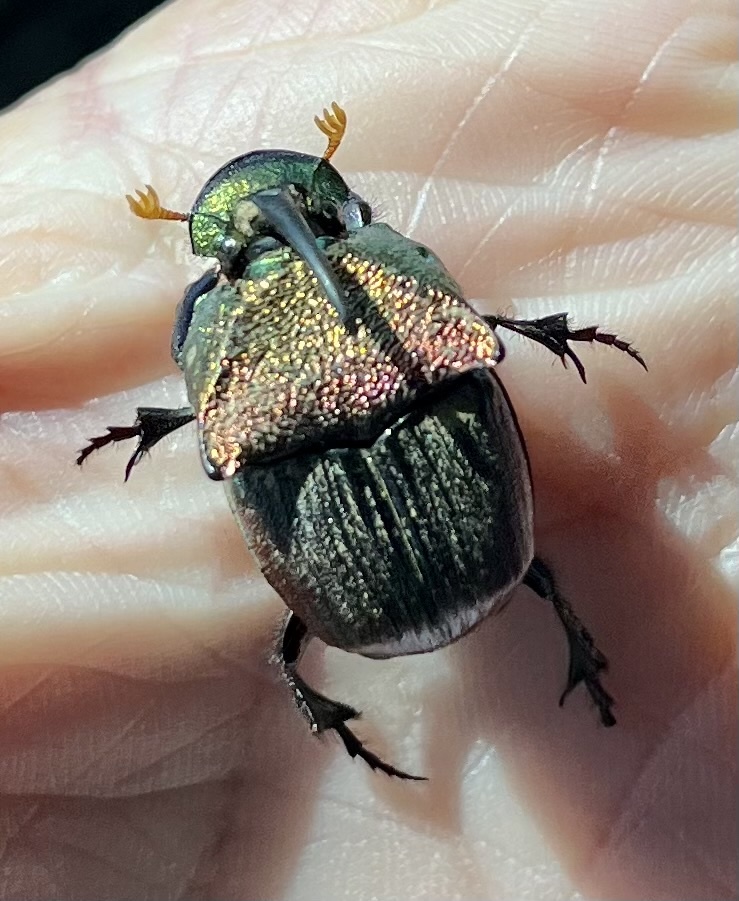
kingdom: Animalia
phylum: Arthropoda
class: Insecta
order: Coleoptera
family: Scarabaeidae
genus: Phanaeus
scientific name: Phanaeus vindex
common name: Rainbow scarab
